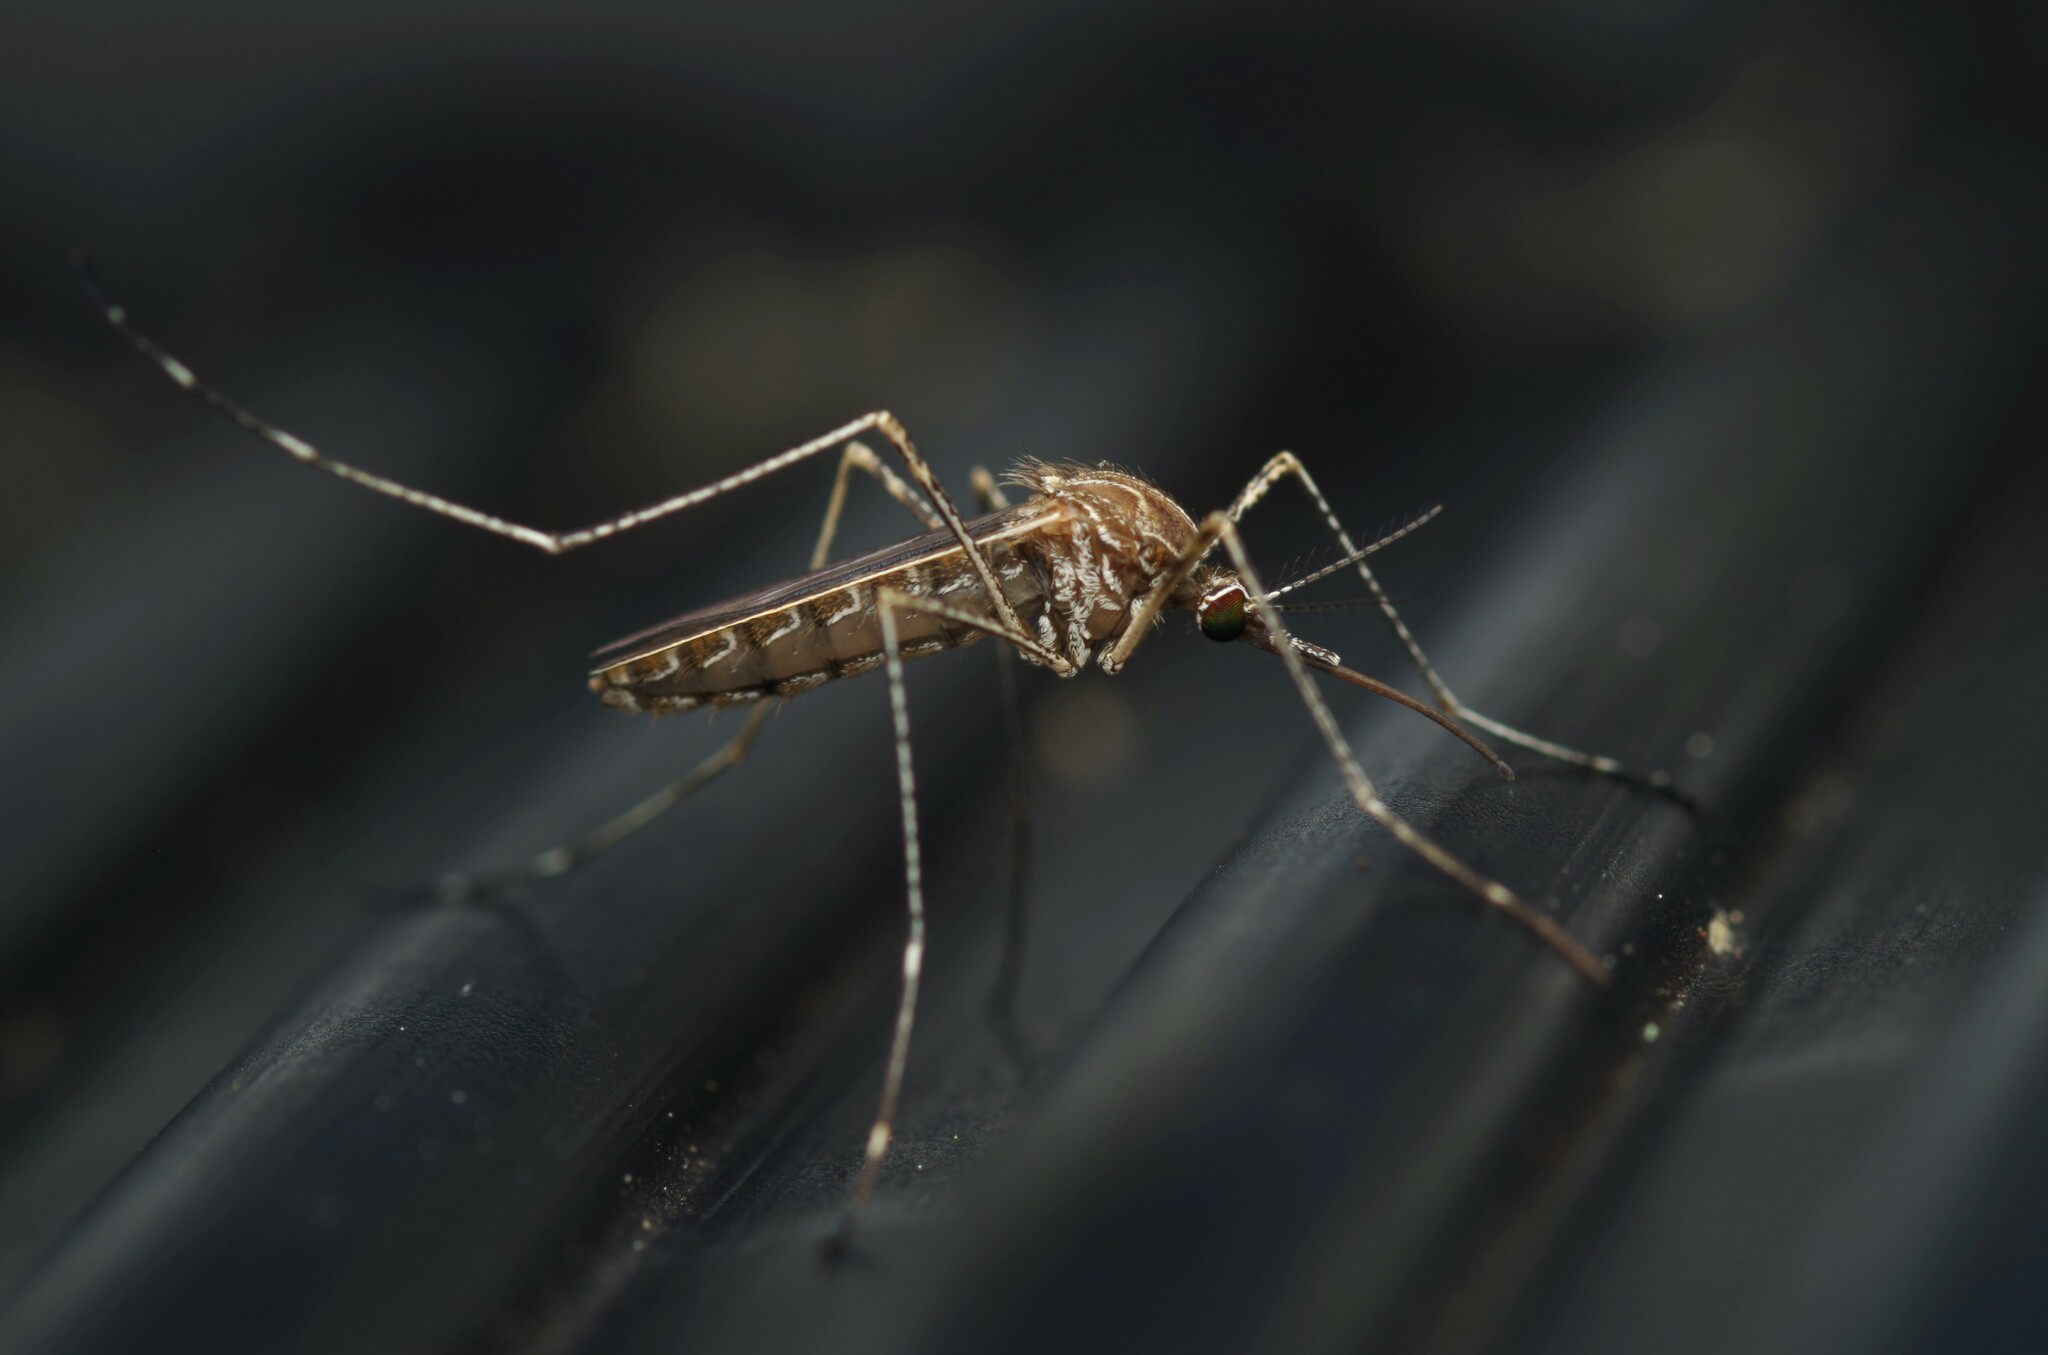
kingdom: Animalia
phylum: Arthropoda
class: Insecta
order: Diptera
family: Culicidae
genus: Culiseta
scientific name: Culiseta longiareolata
